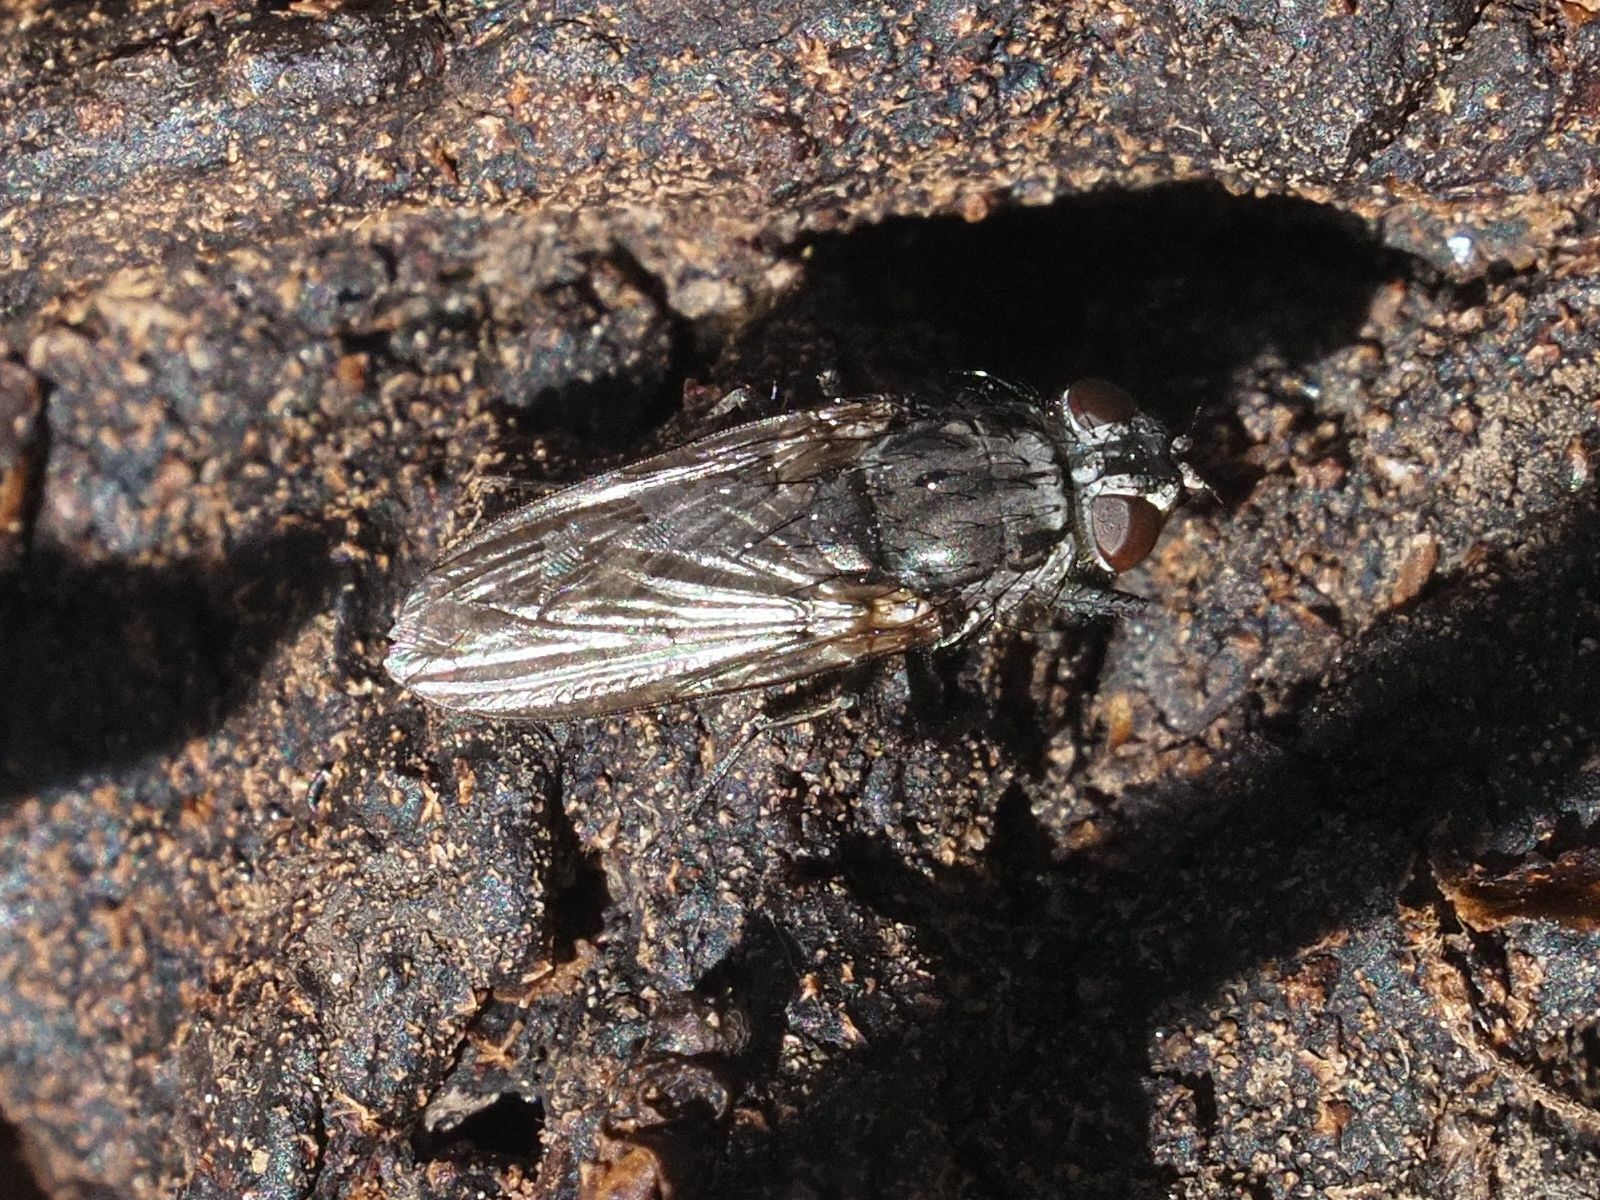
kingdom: Animalia
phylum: Arthropoda
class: Insecta
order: Diptera
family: Polleniidae
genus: Pollenia
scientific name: Pollenia vagabunda
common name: Vagabund cluster fly
